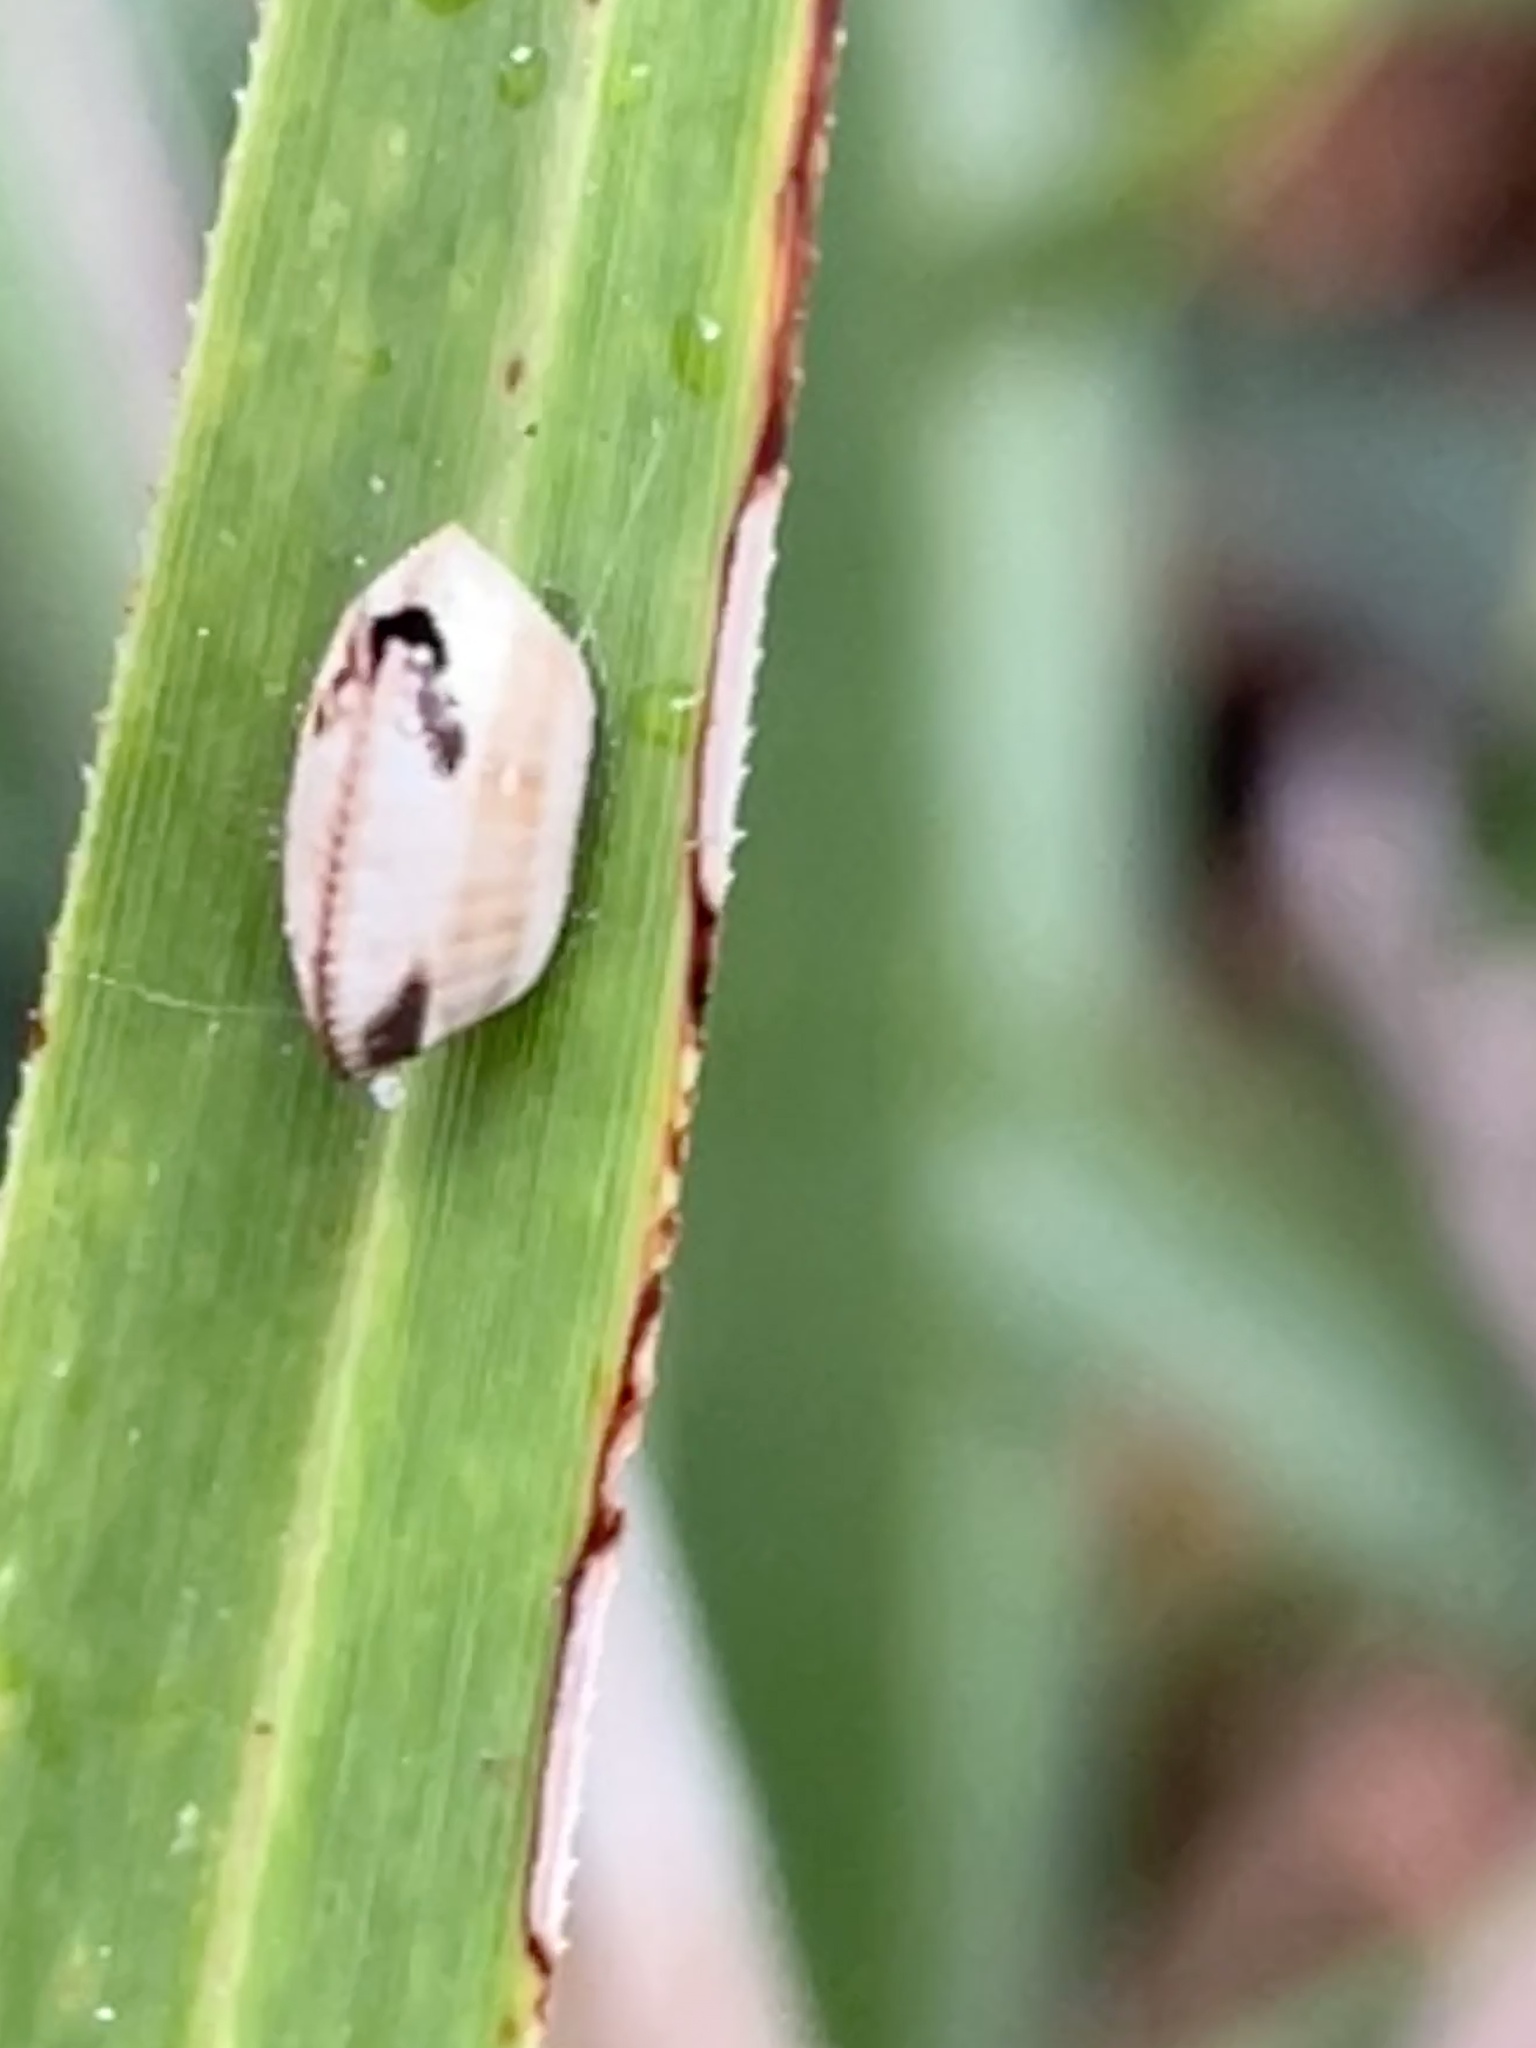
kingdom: Animalia
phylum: Arthropoda
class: Insecta
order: Blattodea
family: Ectobiidae
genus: Balta
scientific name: Balta bicolor
